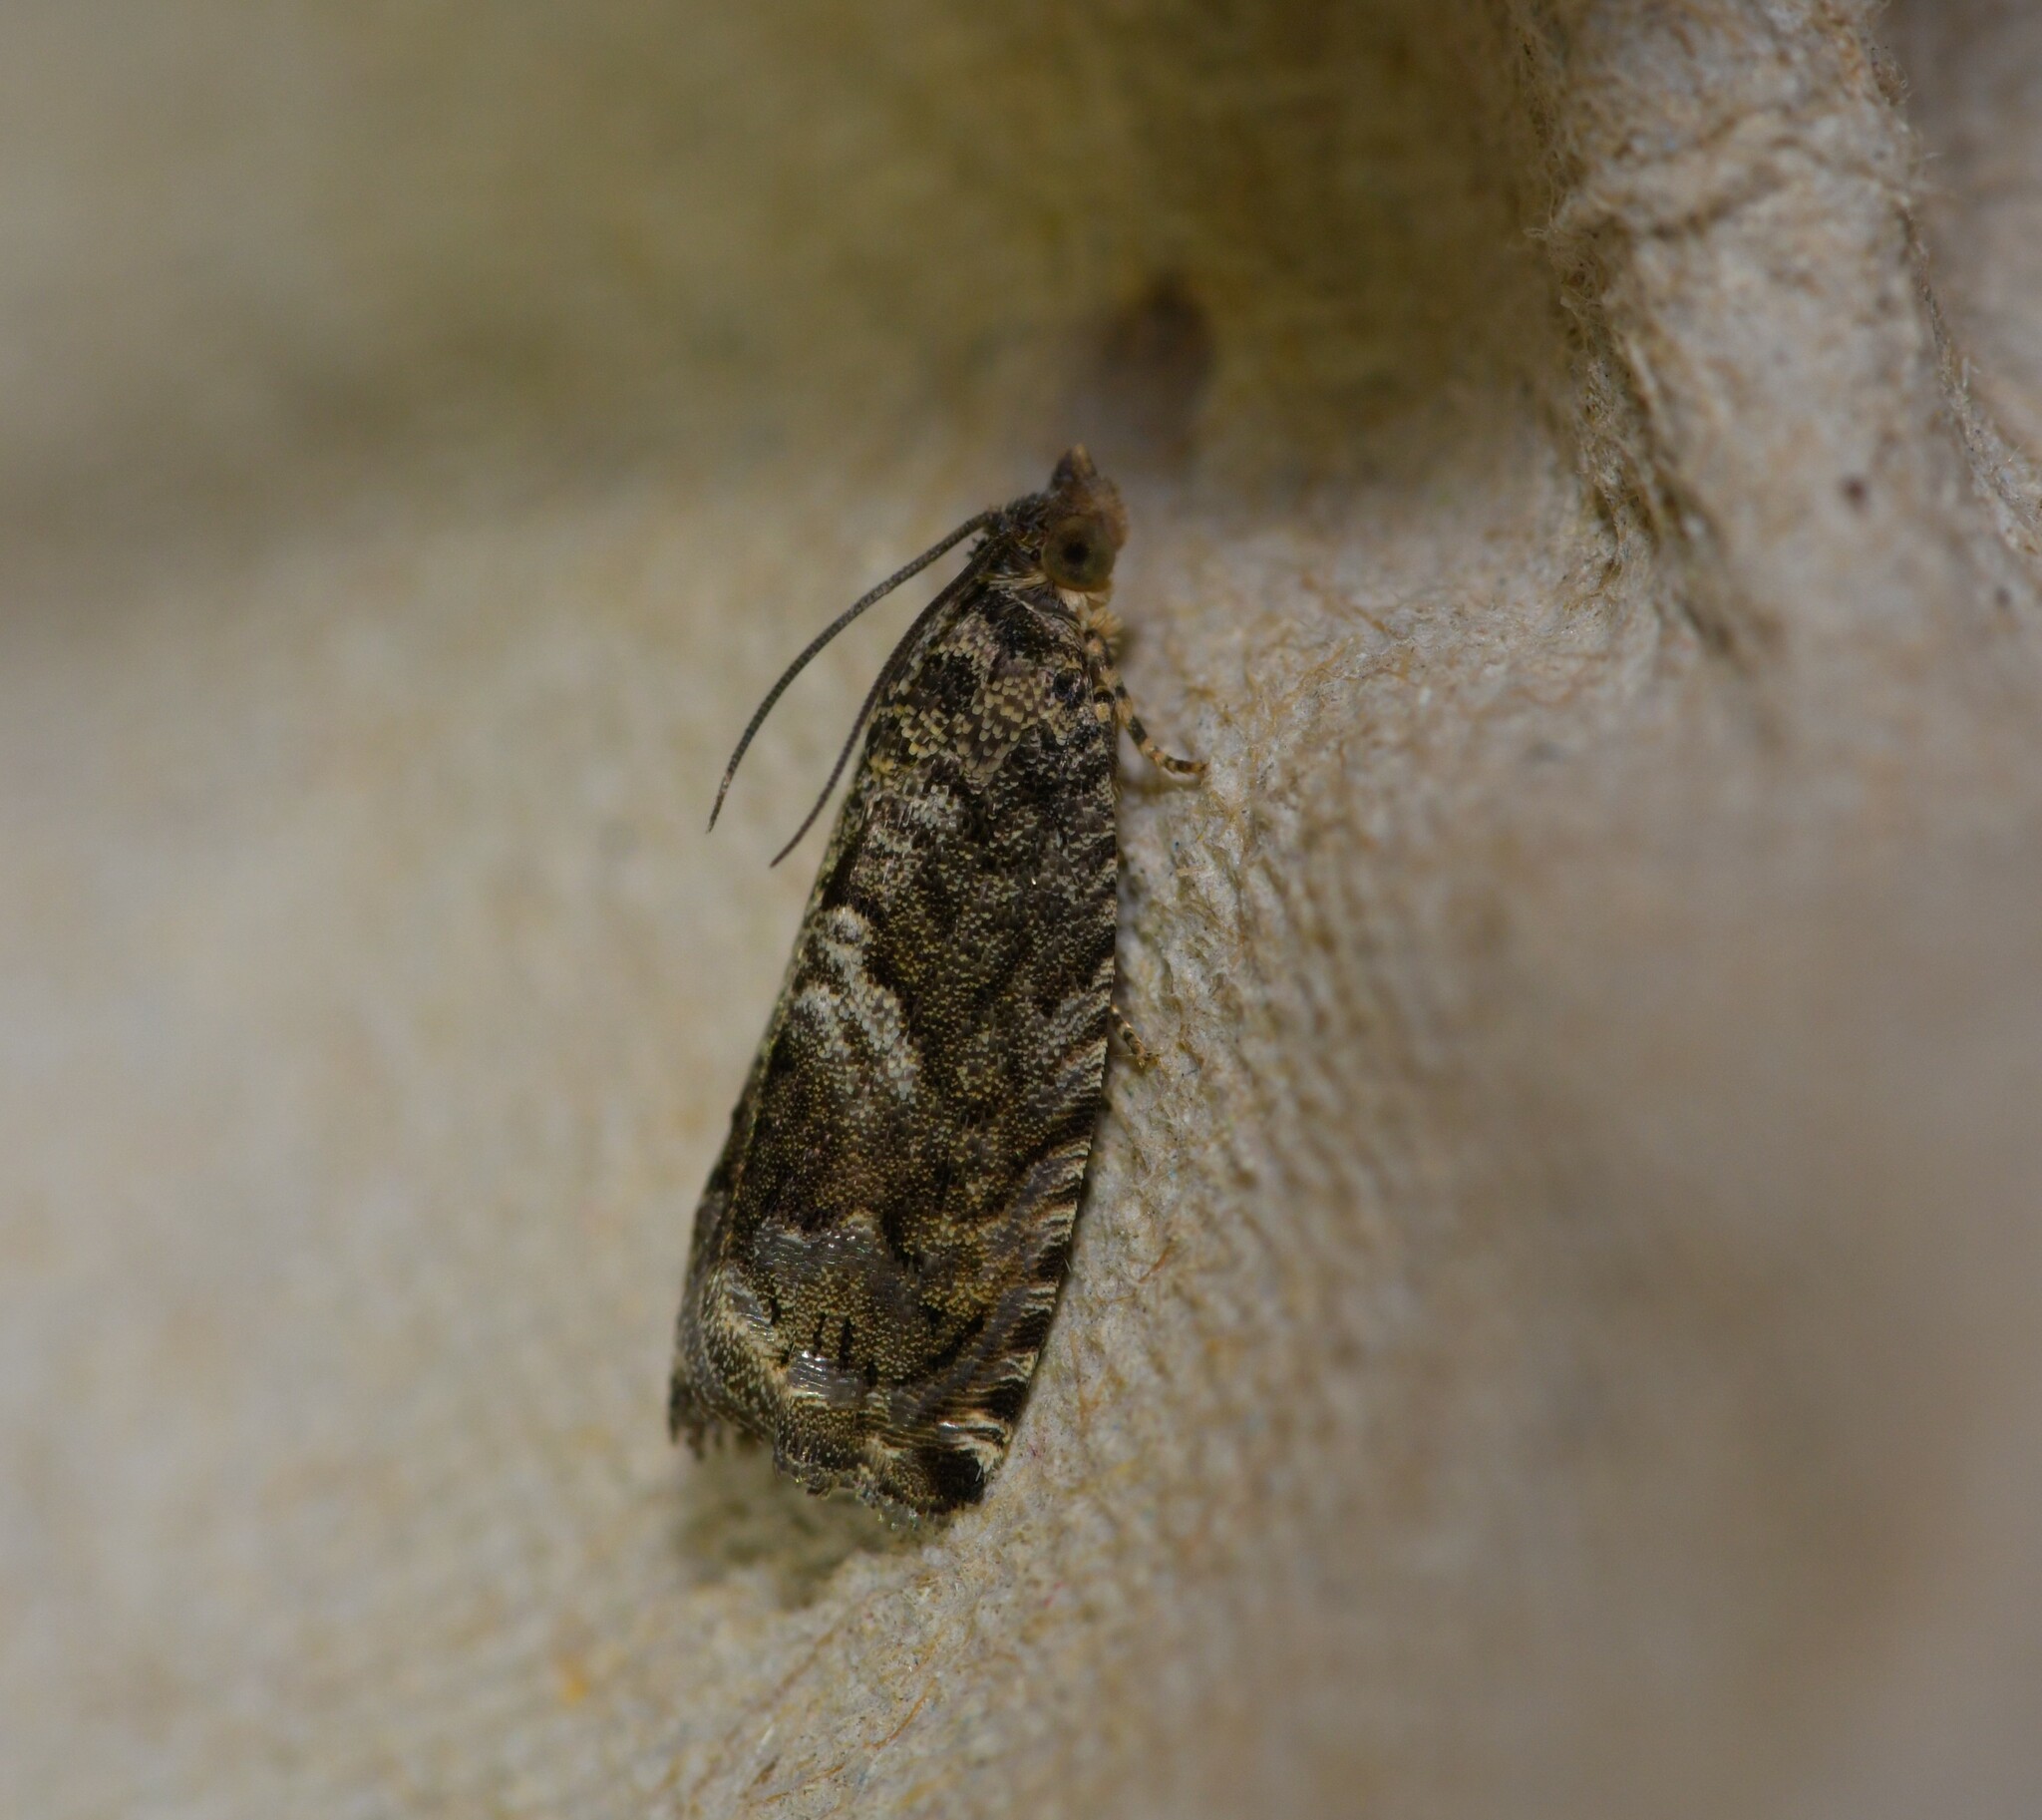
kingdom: Animalia
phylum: Arthropoda
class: Insecta
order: Lepidoptera
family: Tortricidae
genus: Cydia
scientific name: Cydia fagiglandana
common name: Large beech piercer
